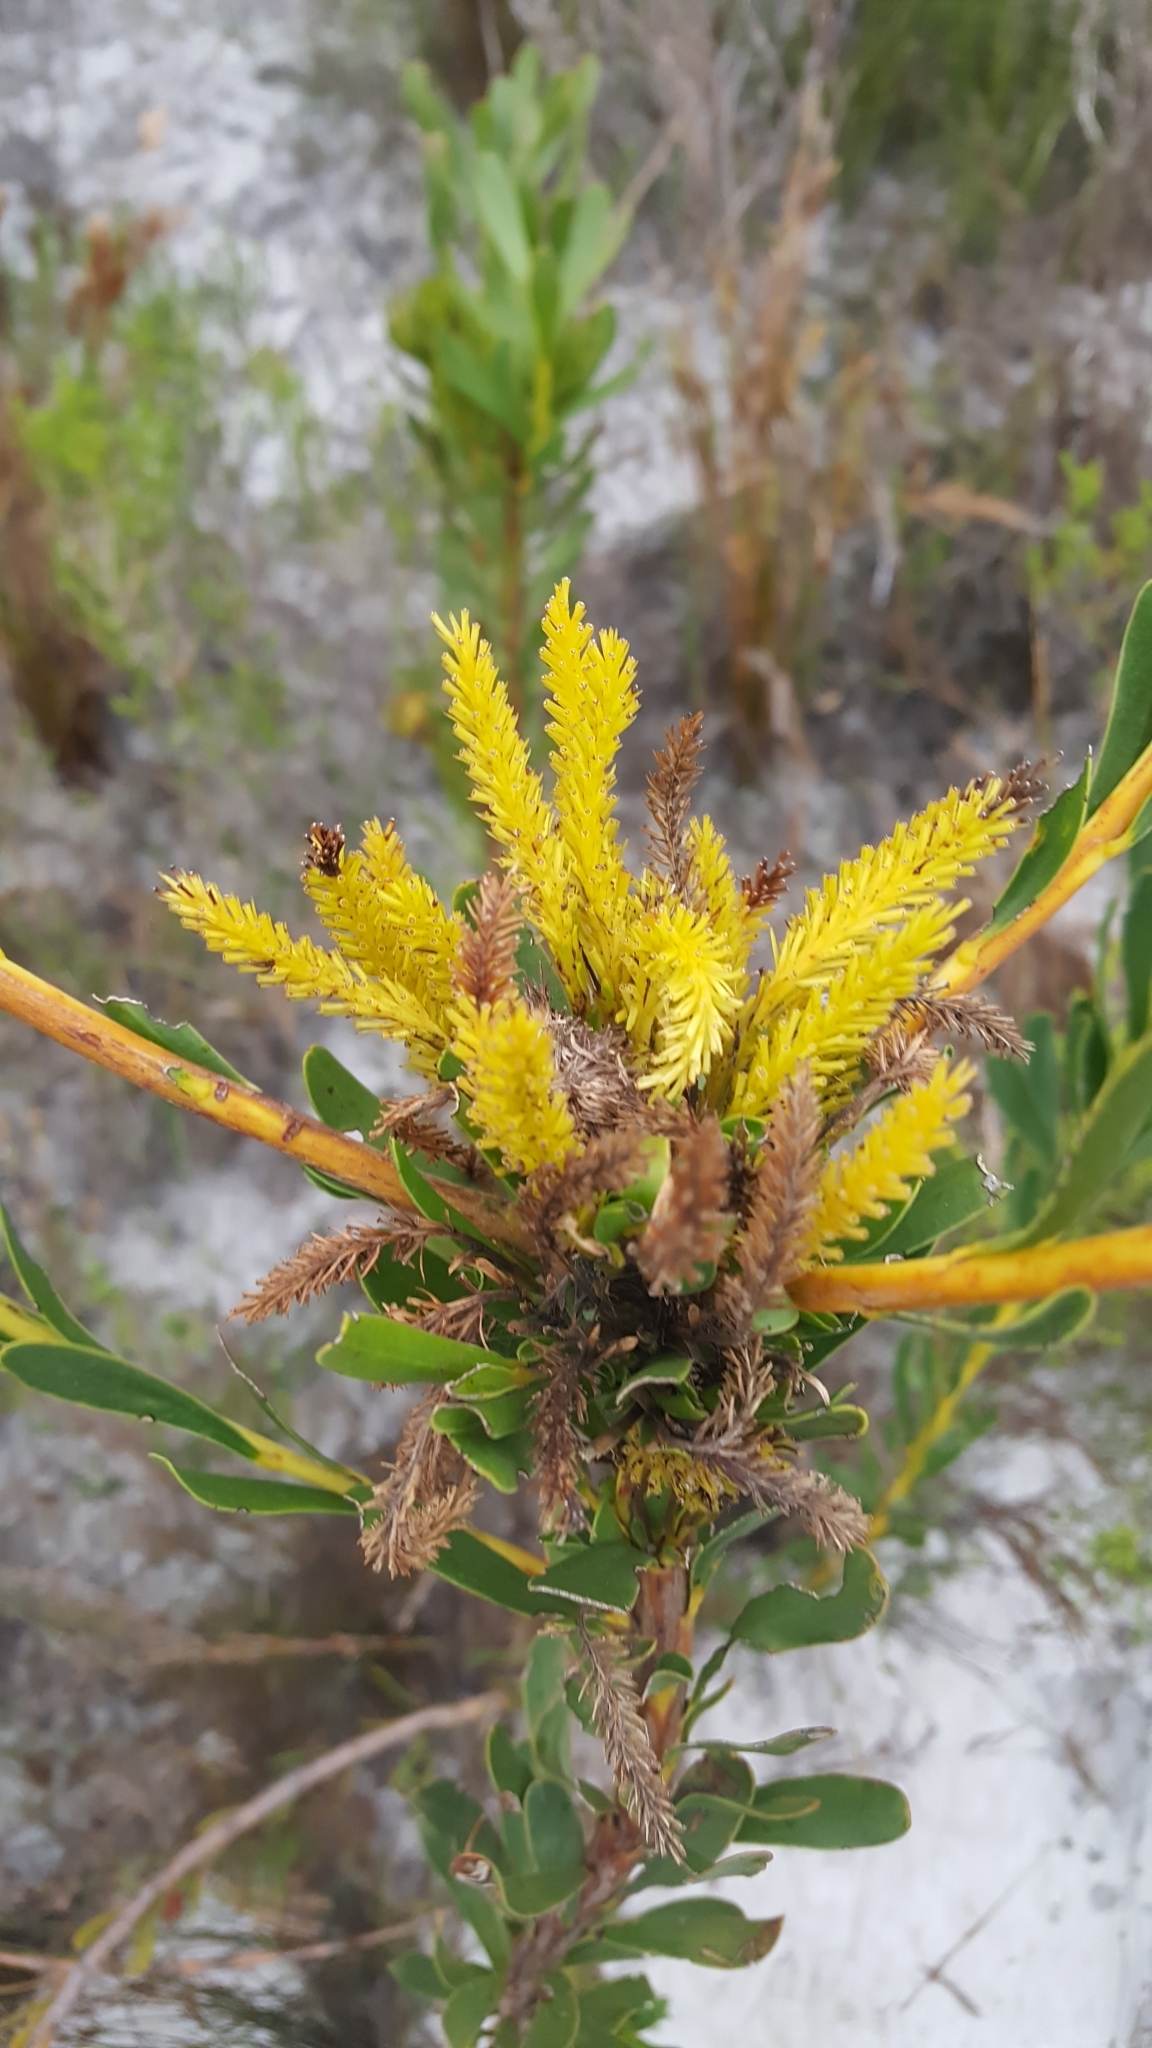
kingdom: Plantae
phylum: Tracheophyta
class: Magnoliopsida
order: Proteales
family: Proteaceae
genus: Aulax
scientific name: Aulax umbellata
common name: Broad-leaf featherbush
